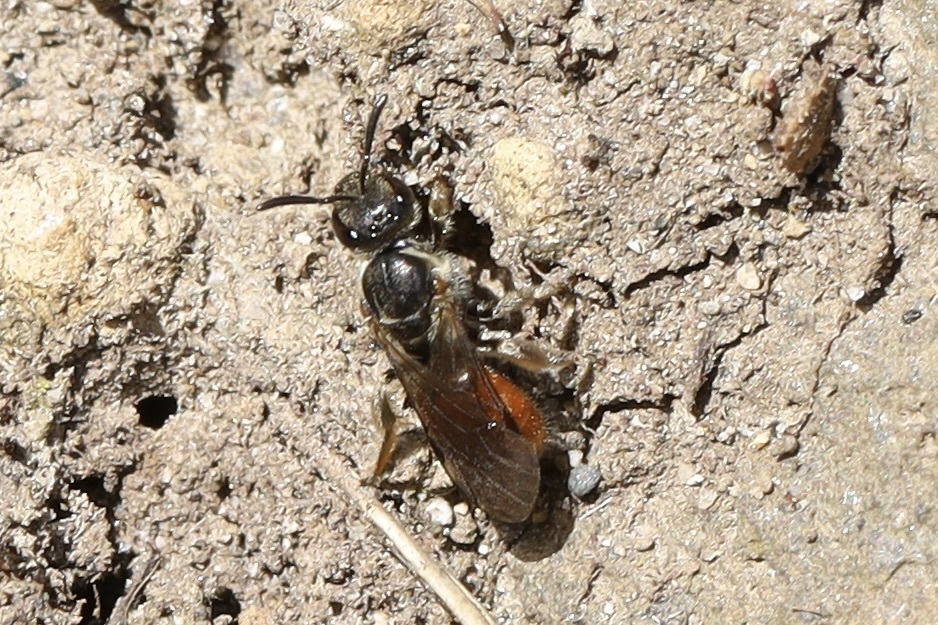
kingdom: Animalia
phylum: Arthropoda
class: Insecta
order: Hymenoptera
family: Halictidae
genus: Lasioglossum
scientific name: Lasioglossum ovaliceps
